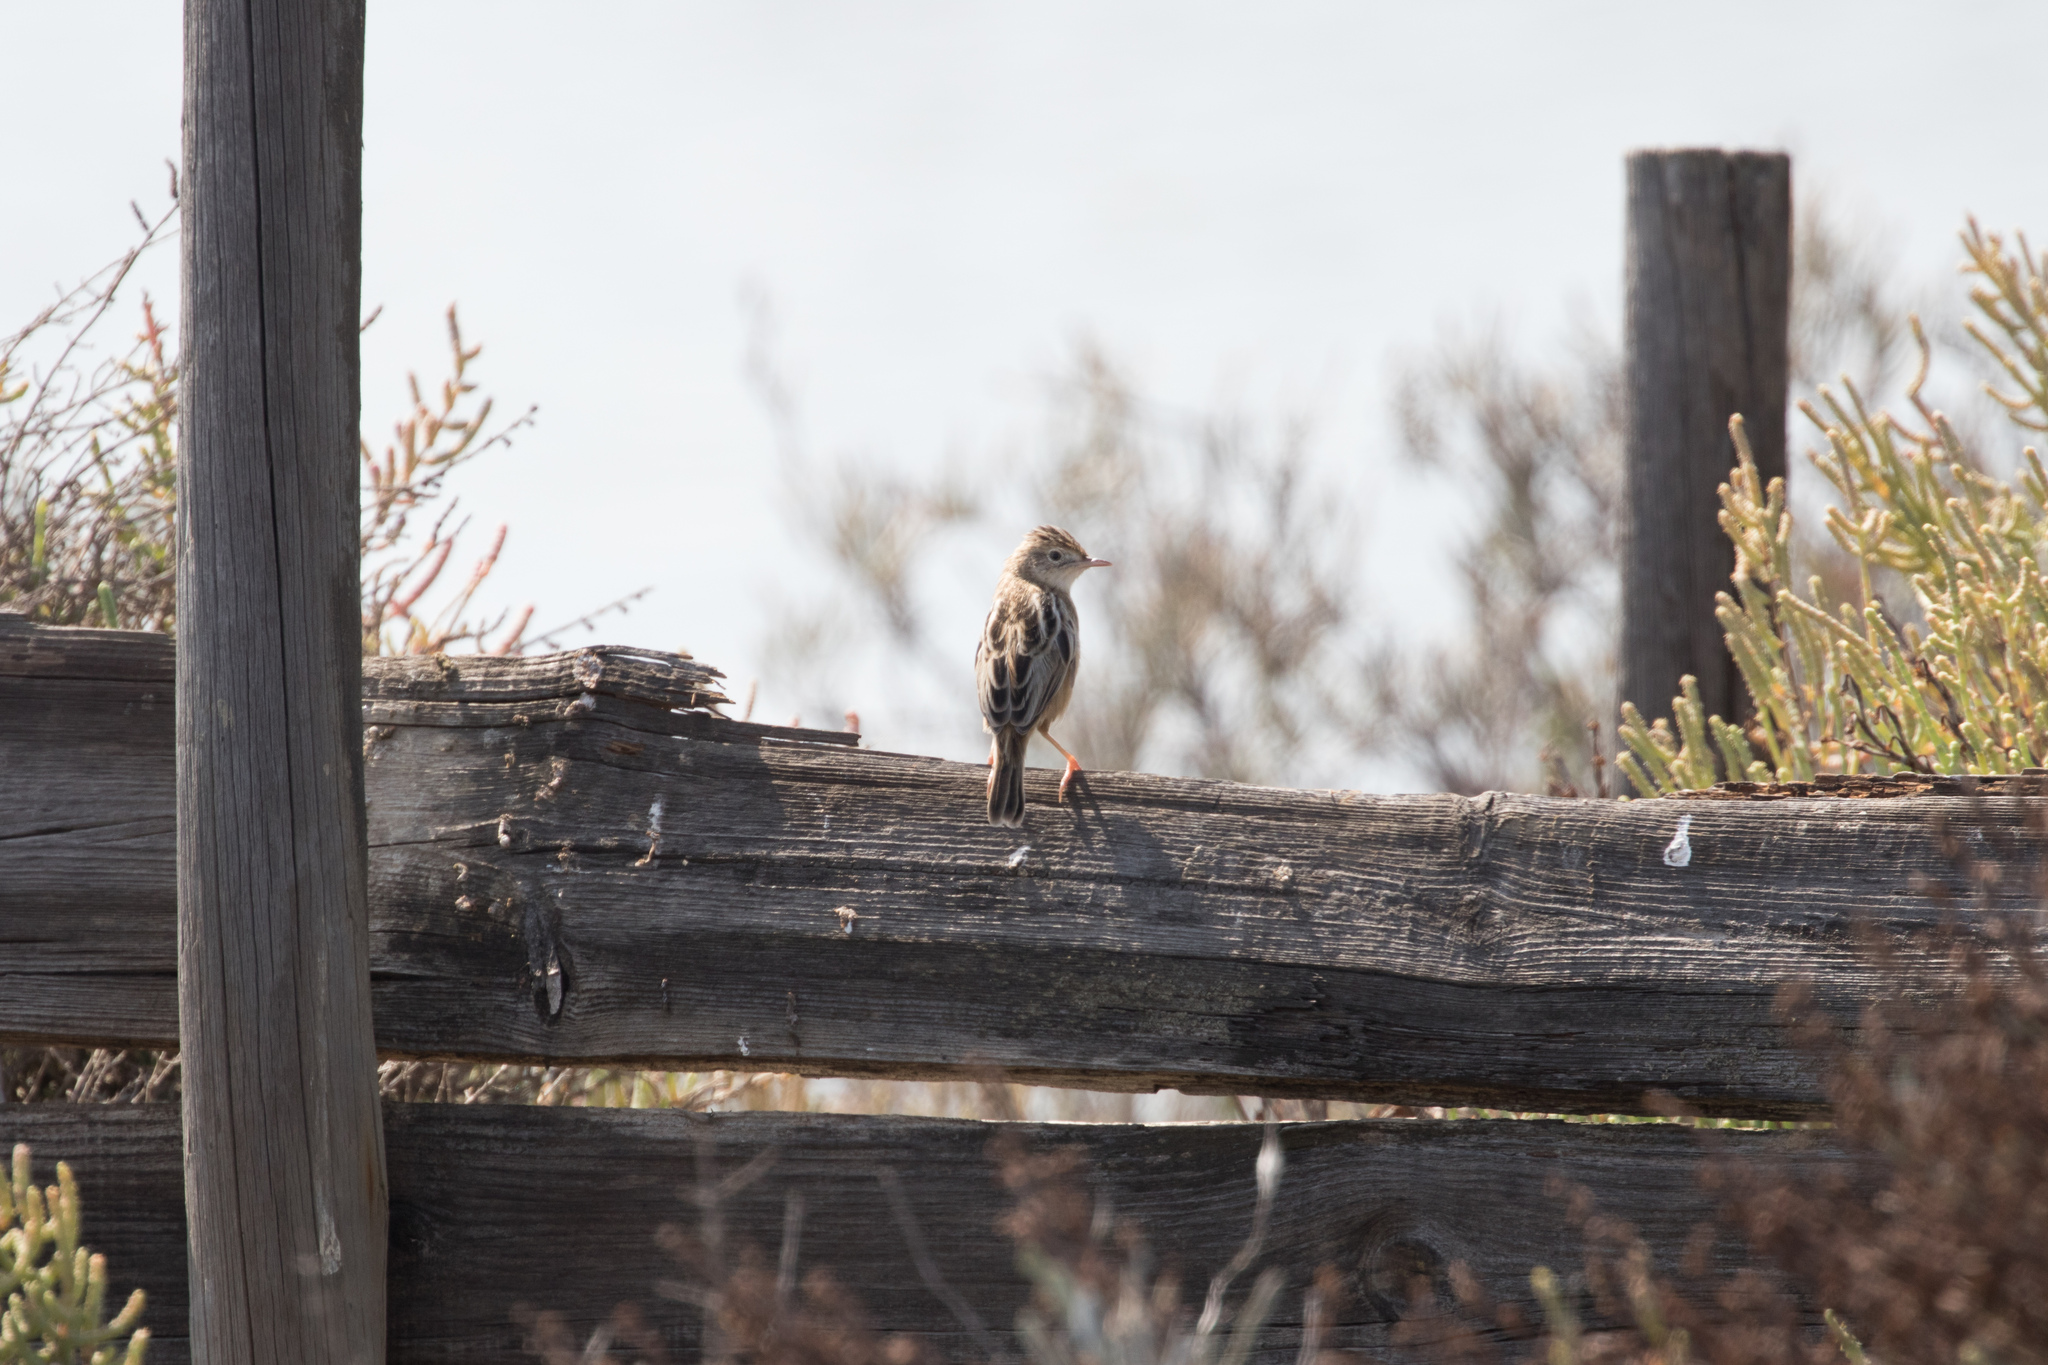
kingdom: Animalia
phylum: Chordata
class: Aves
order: Passeriformes
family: Cisticolidae
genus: Cisticola
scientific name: Cisticola juncidis
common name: Zitting cisticola
